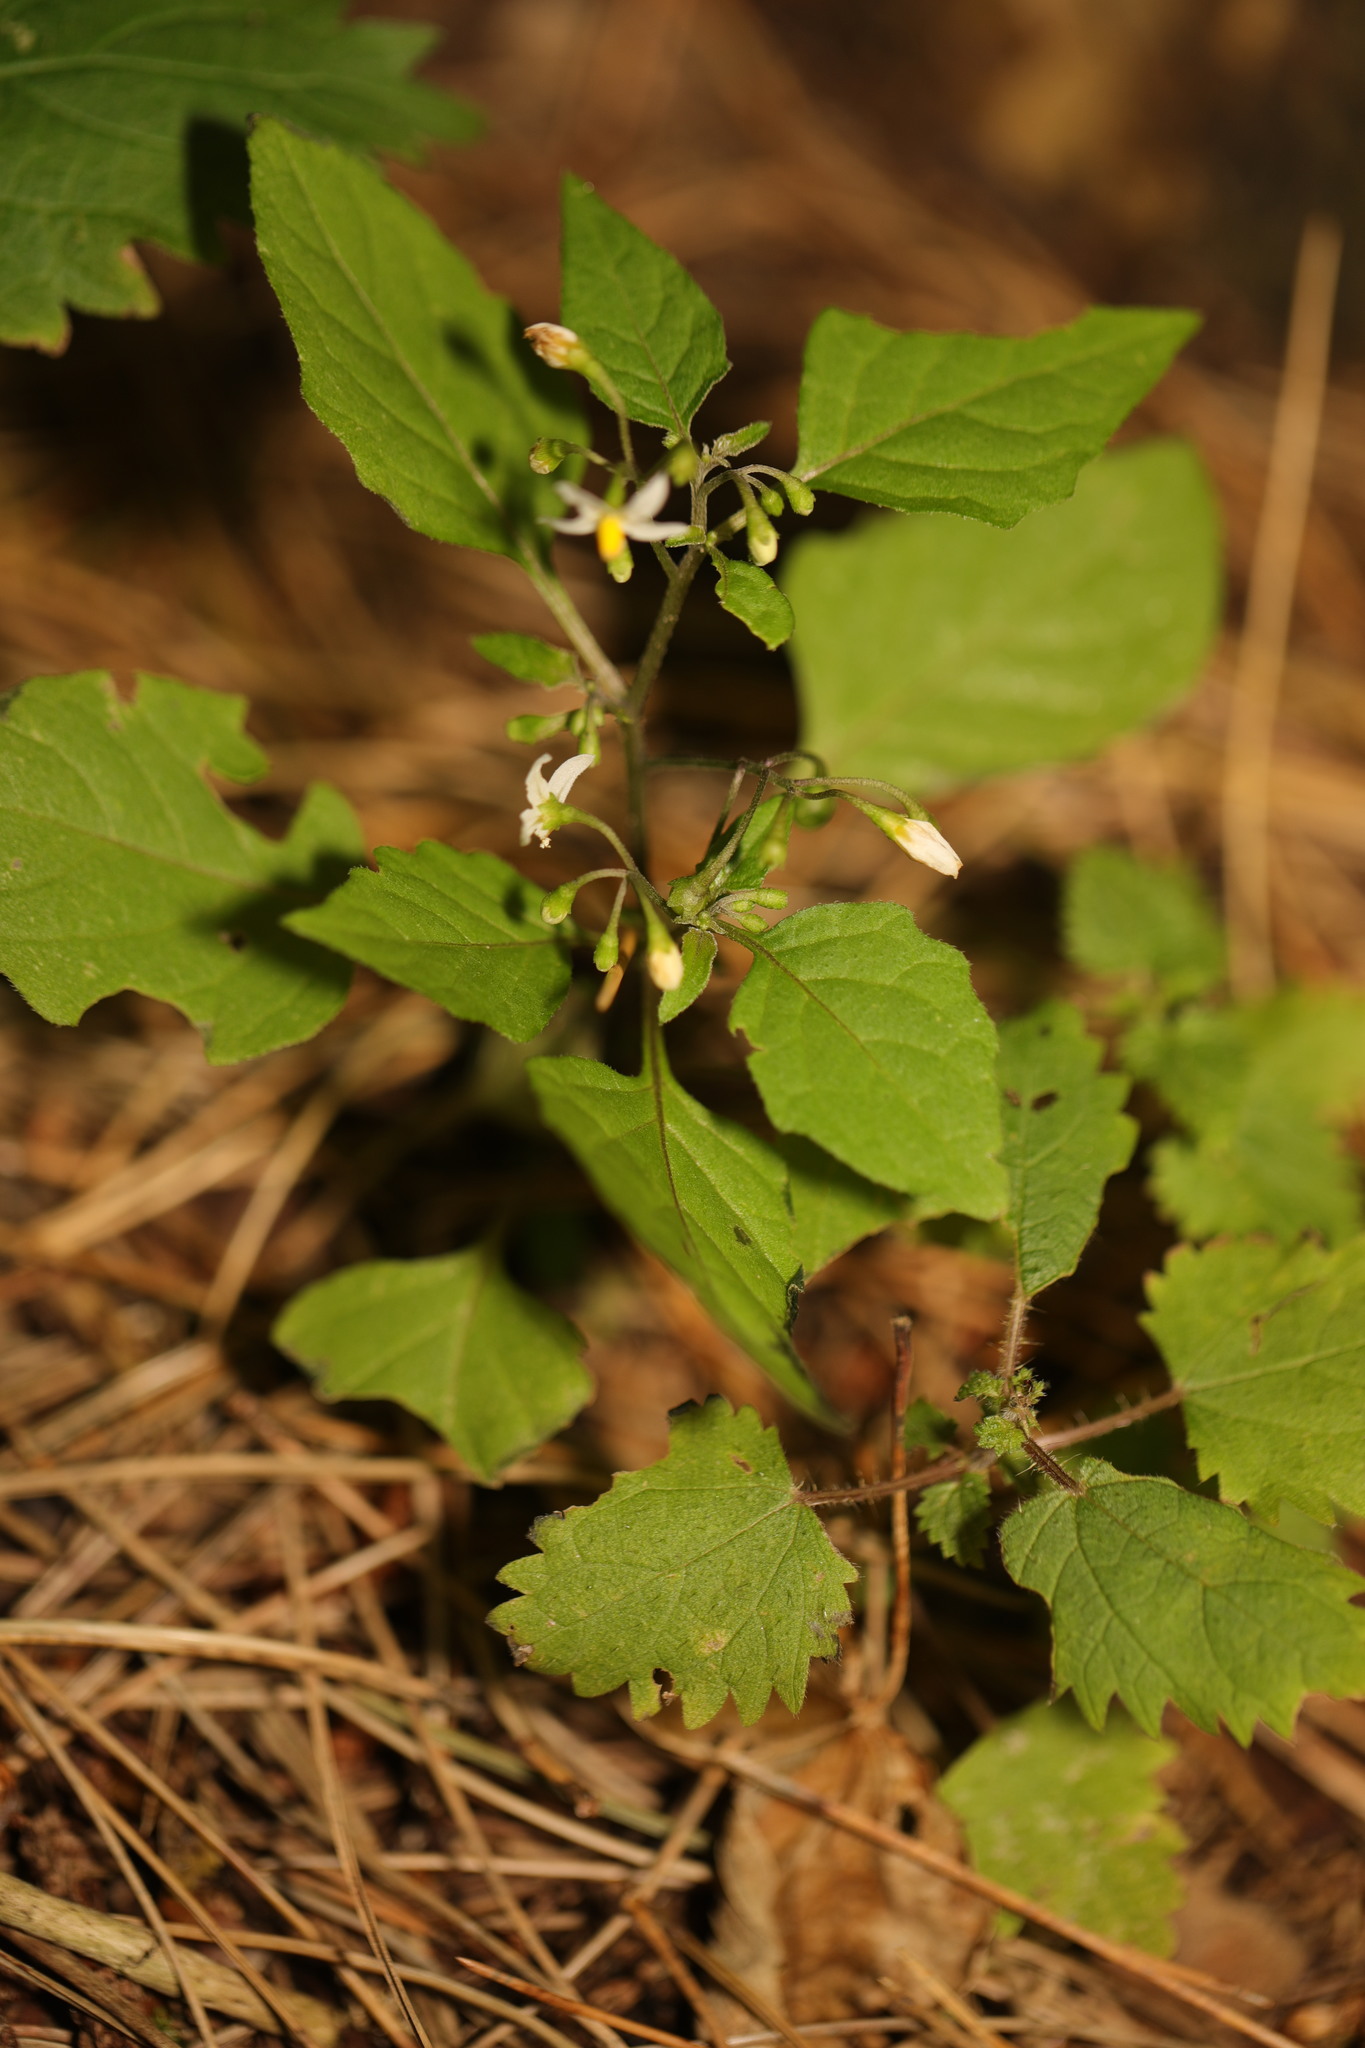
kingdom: Plantae
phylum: Tracheophyta
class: Magnoliopsida
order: Solanales
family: Solanaceae
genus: Solanum
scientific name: Solanum nigrum
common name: Black nightshade
